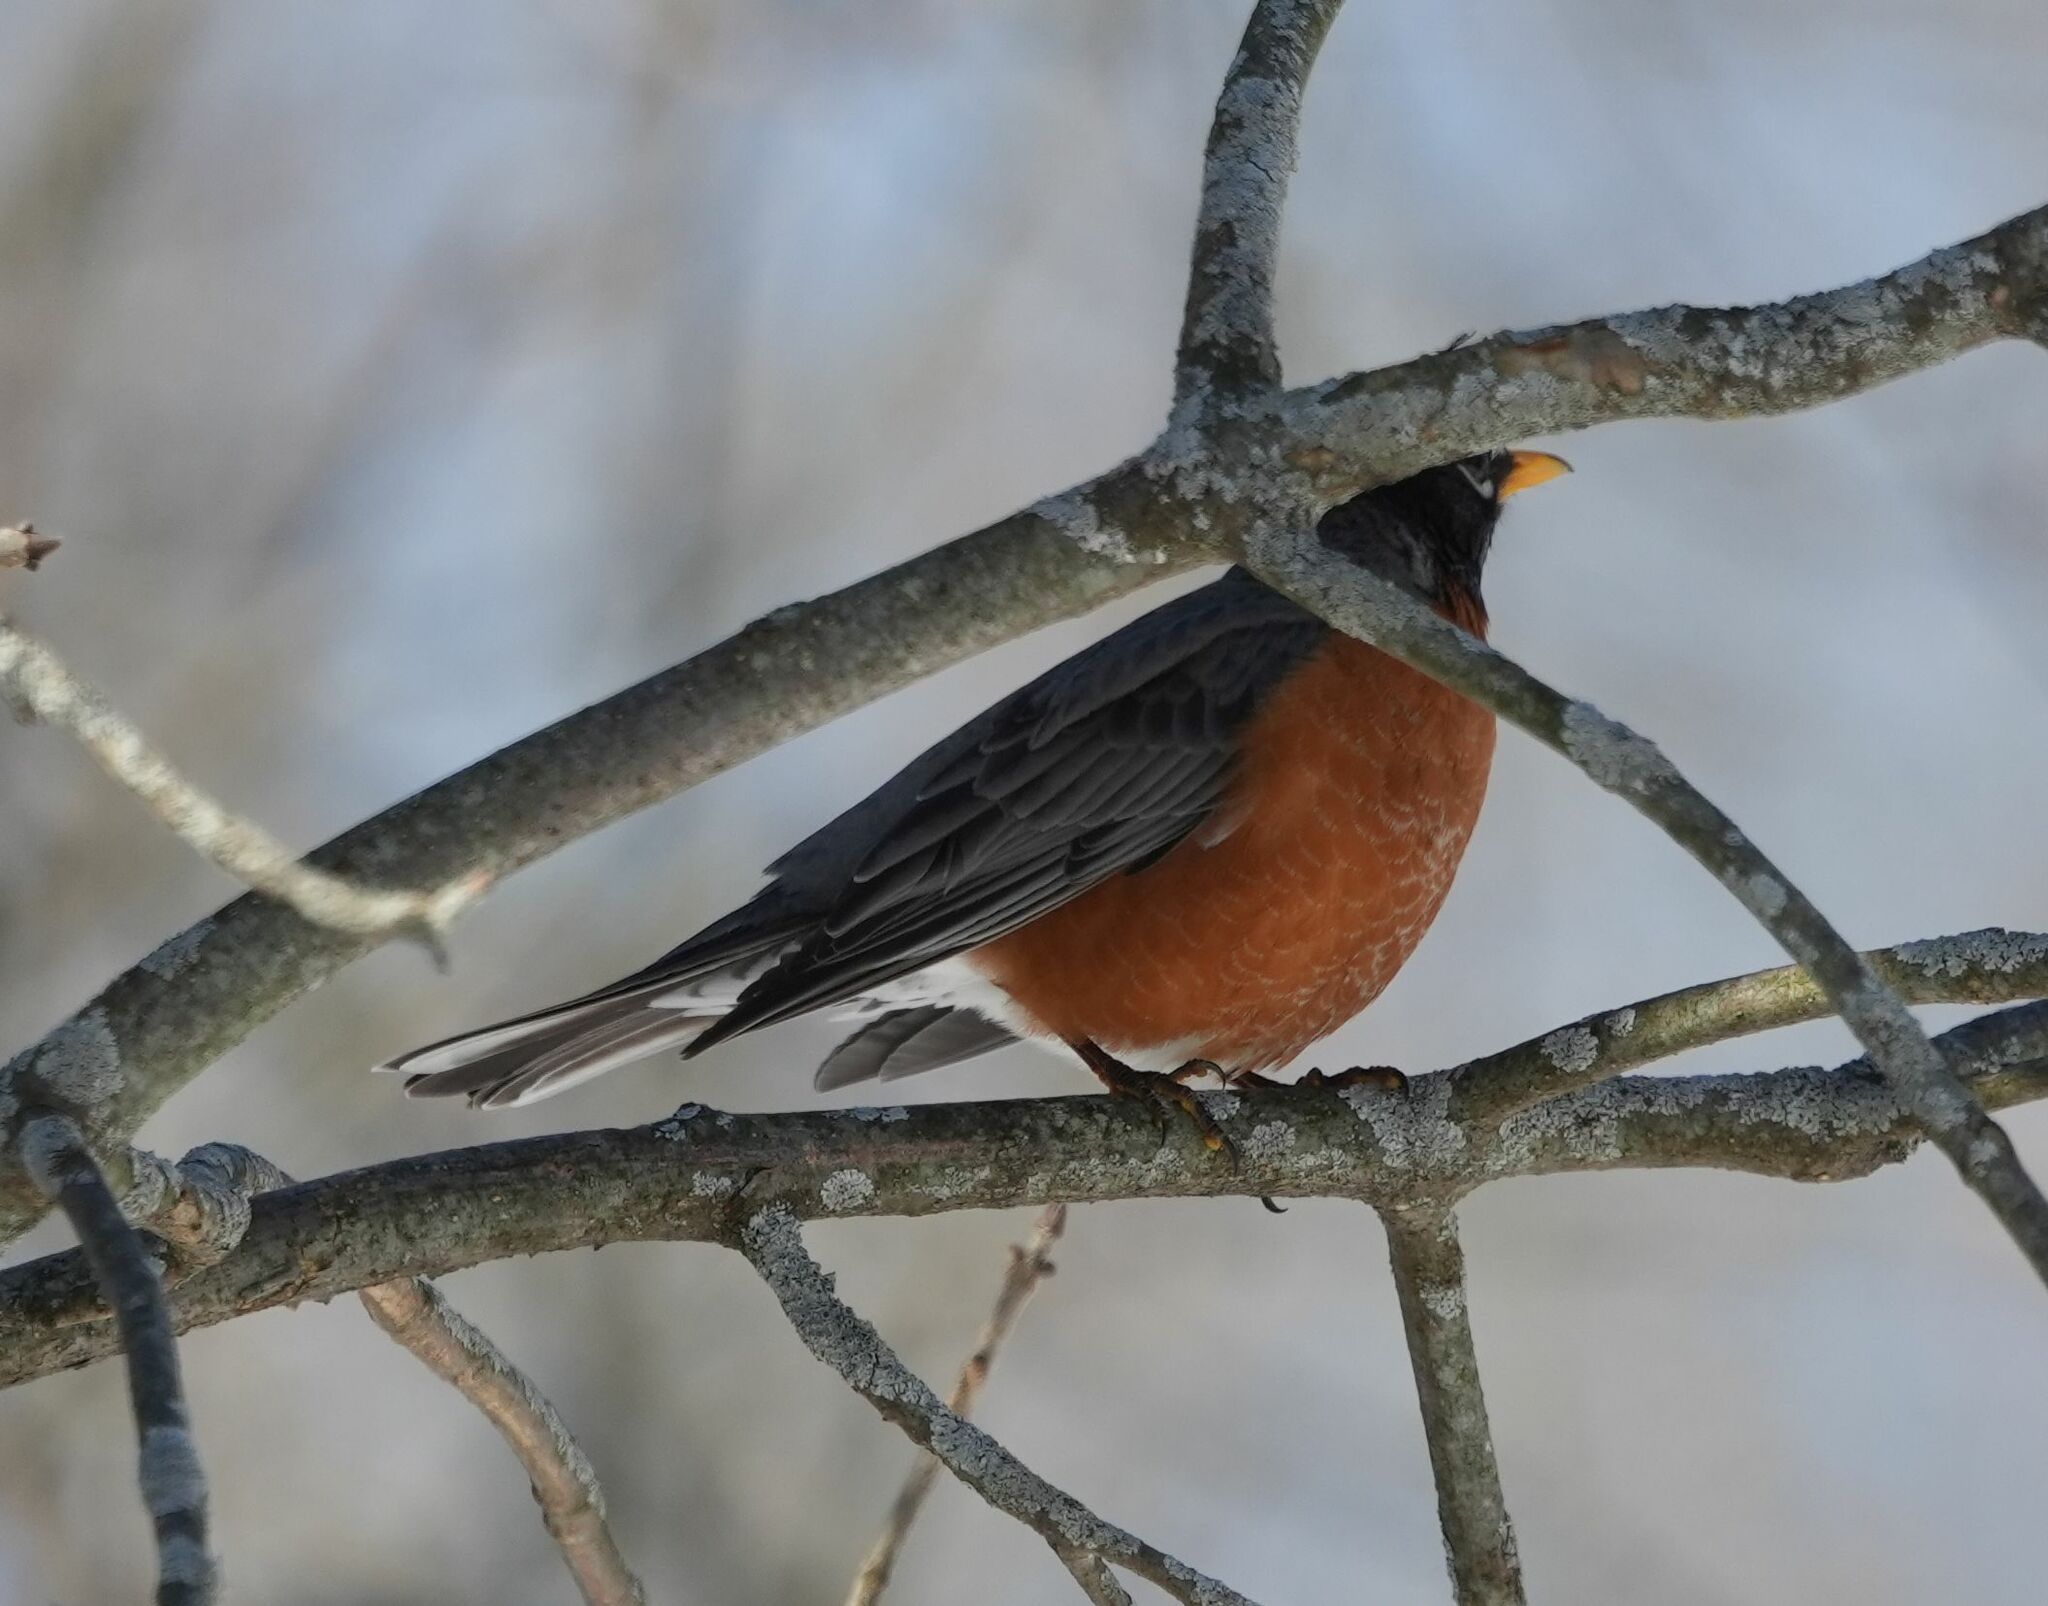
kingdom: Animalia
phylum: Chordata
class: Aves
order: Passeriformes
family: Turdidae
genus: Turdus
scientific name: Turdus migratorius
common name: American robin
